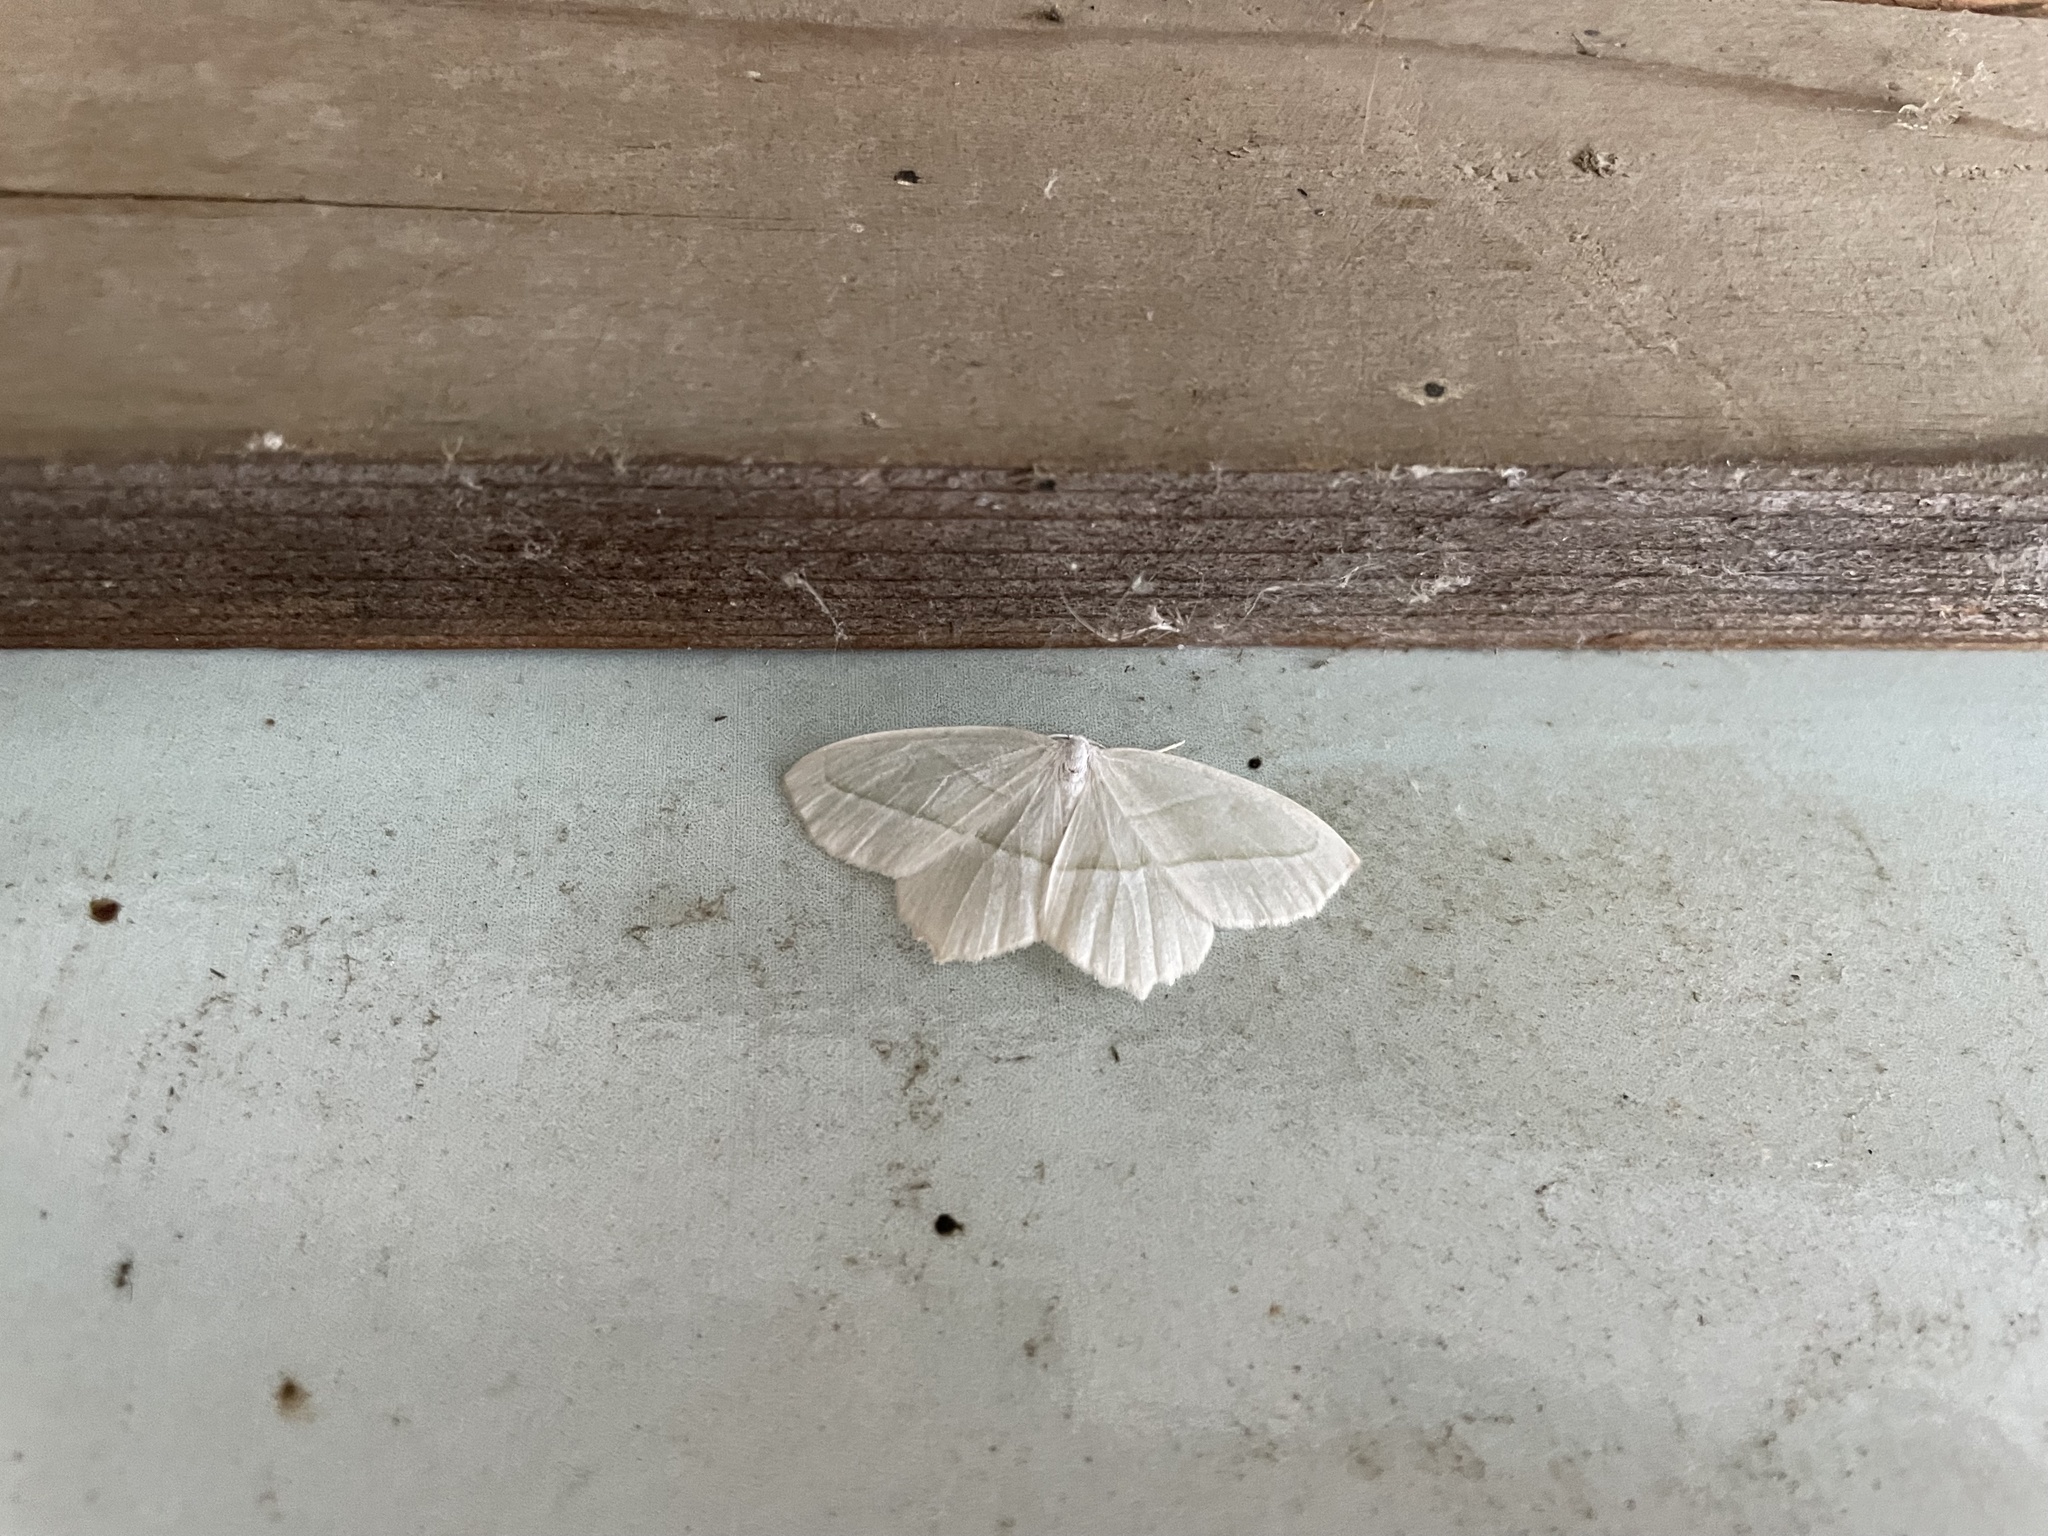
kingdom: Animalia
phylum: Arthropoda
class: Insecta
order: Lepidoptera
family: Geometridae
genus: Campaea
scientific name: Campaea perlata
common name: Fringed looper
